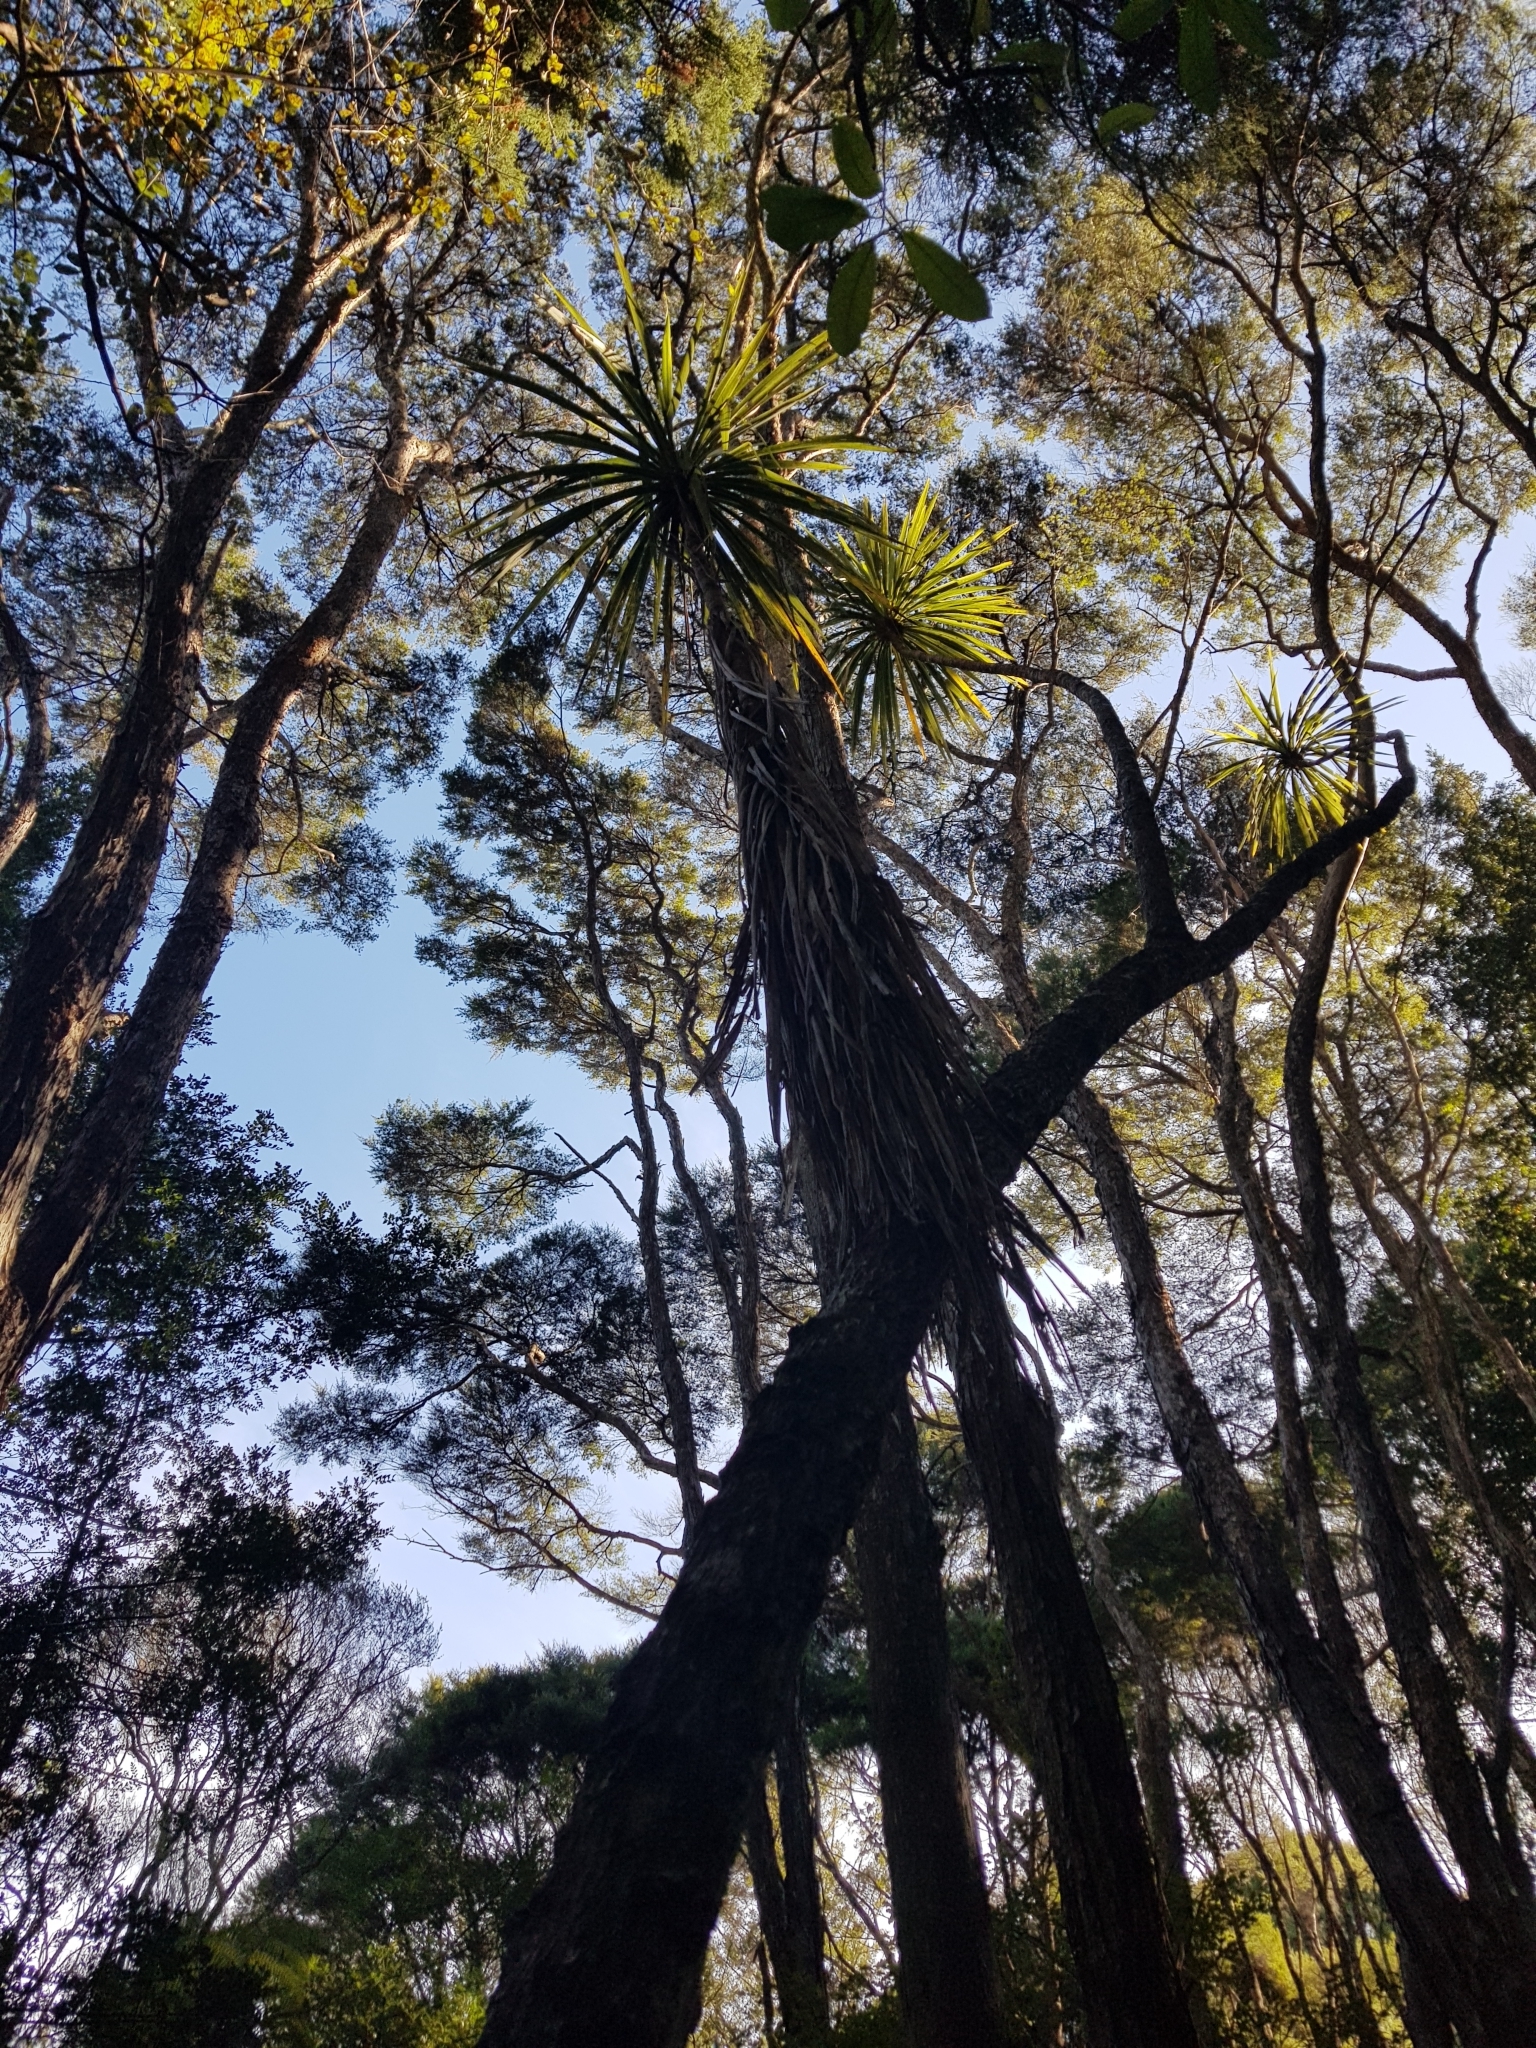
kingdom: Plantae
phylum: Tracheophyta
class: Liliopsida
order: Asparagales
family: Asparagaceae
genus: Cordyline
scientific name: Cordyline australis
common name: Cabbage-palm
